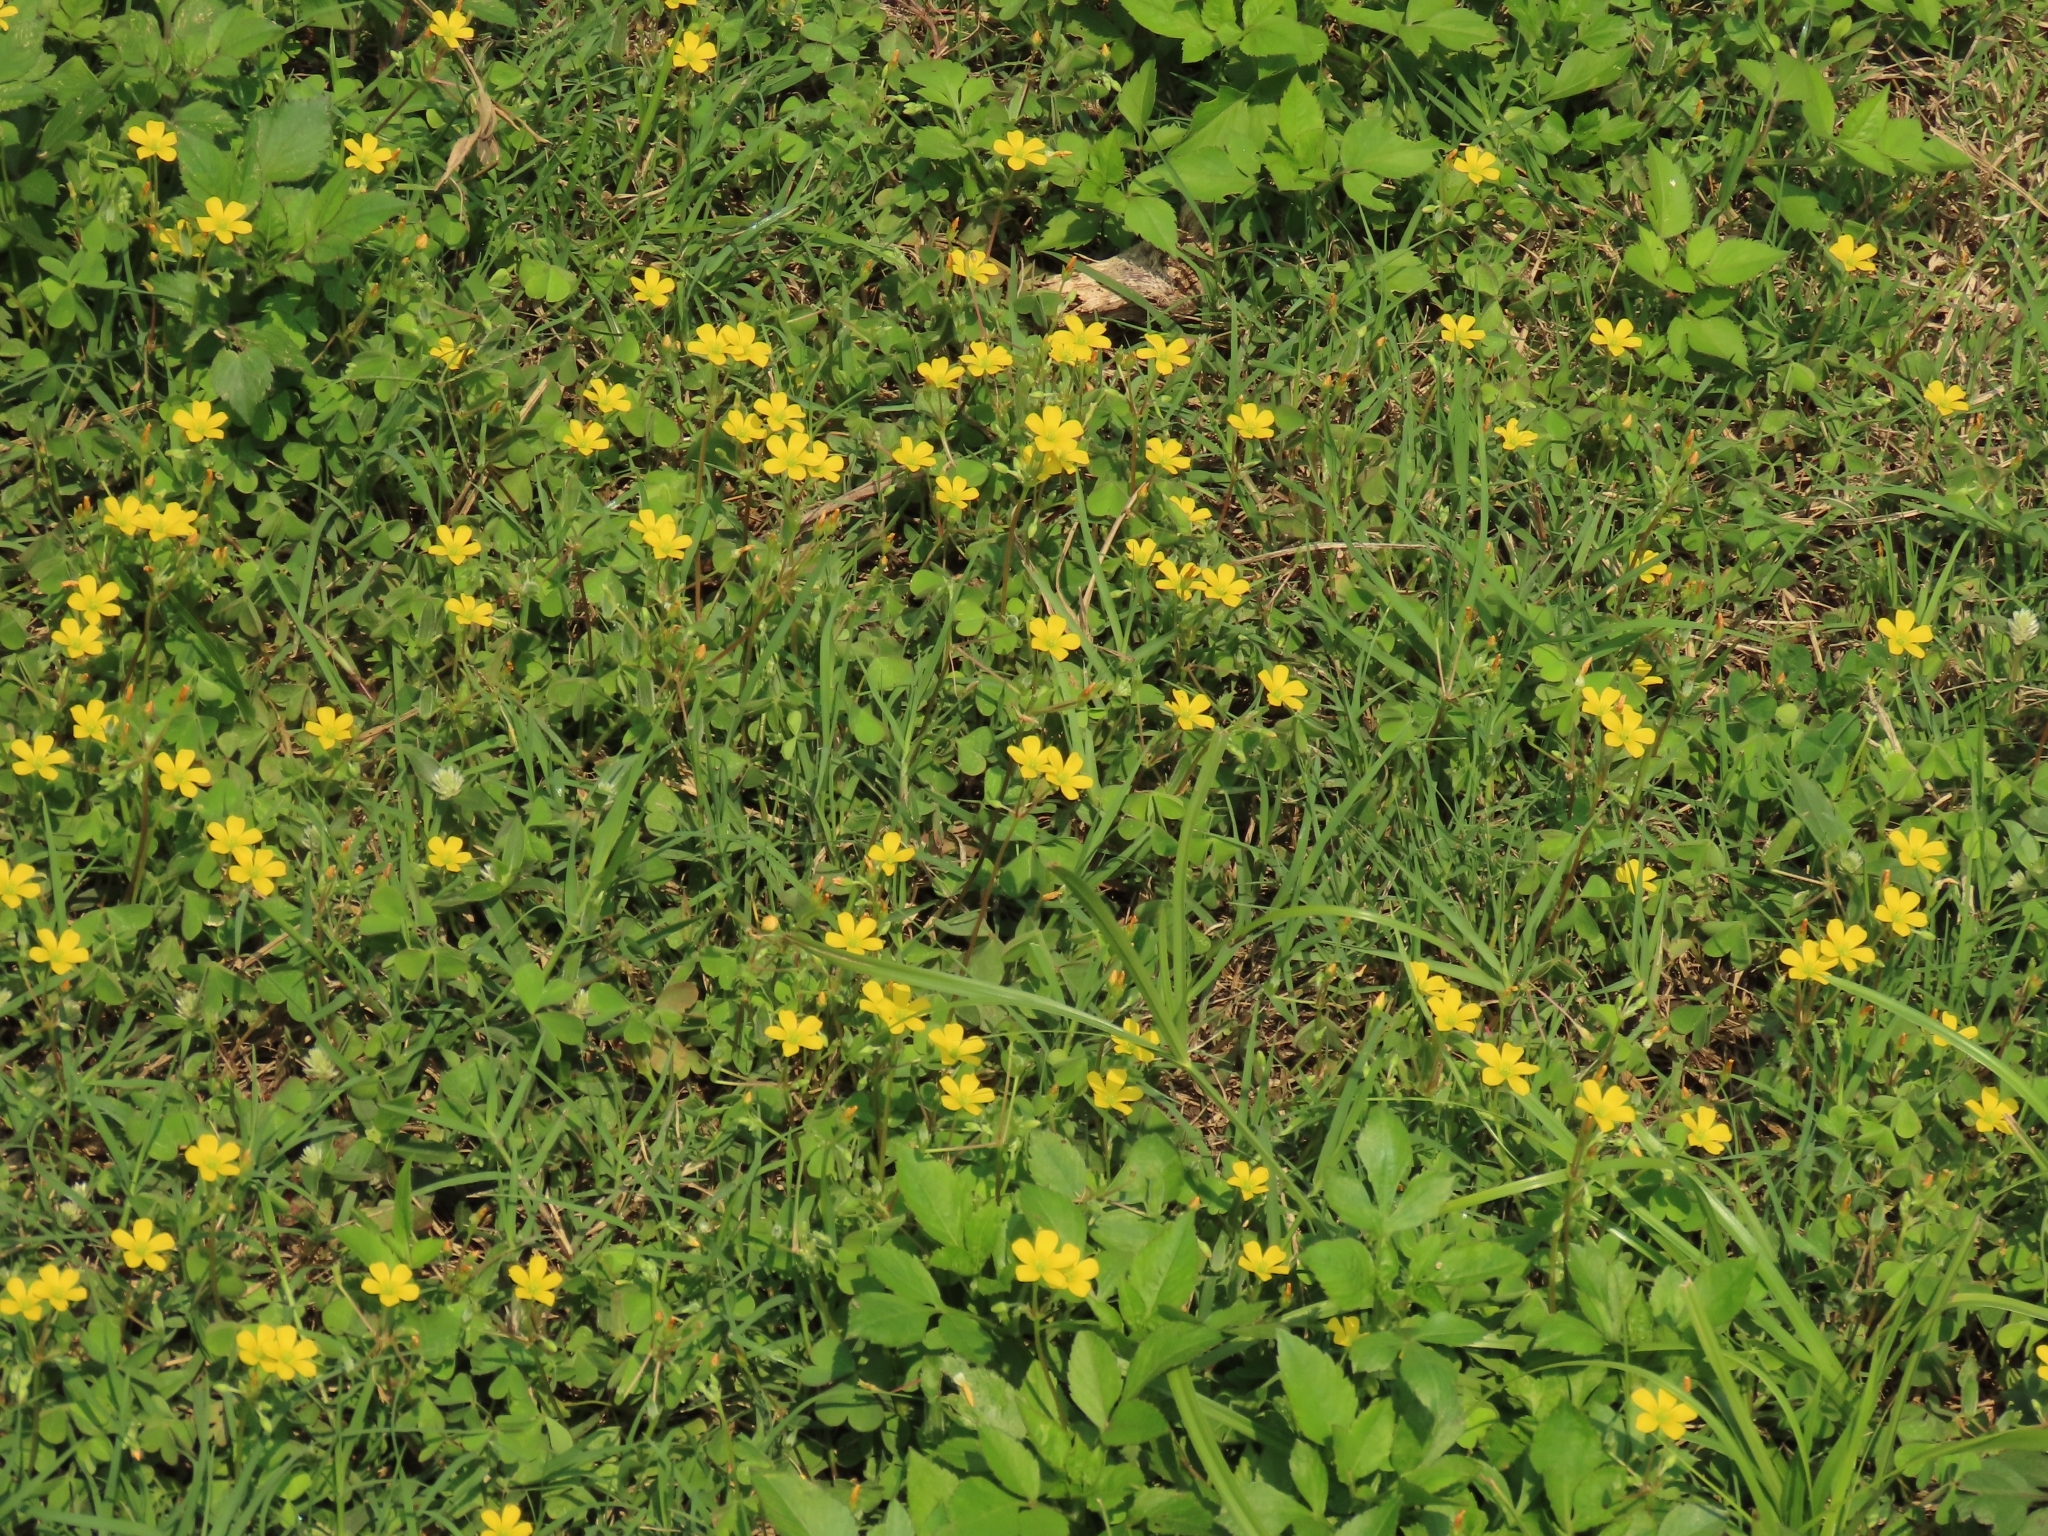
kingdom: Plantae
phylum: Tracheophyta
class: Magnoliopsida
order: Oxalidales
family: Oxalidaceae
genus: Oxalis
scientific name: Oxalis corniculata
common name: Procumbent yellow-sorrel
